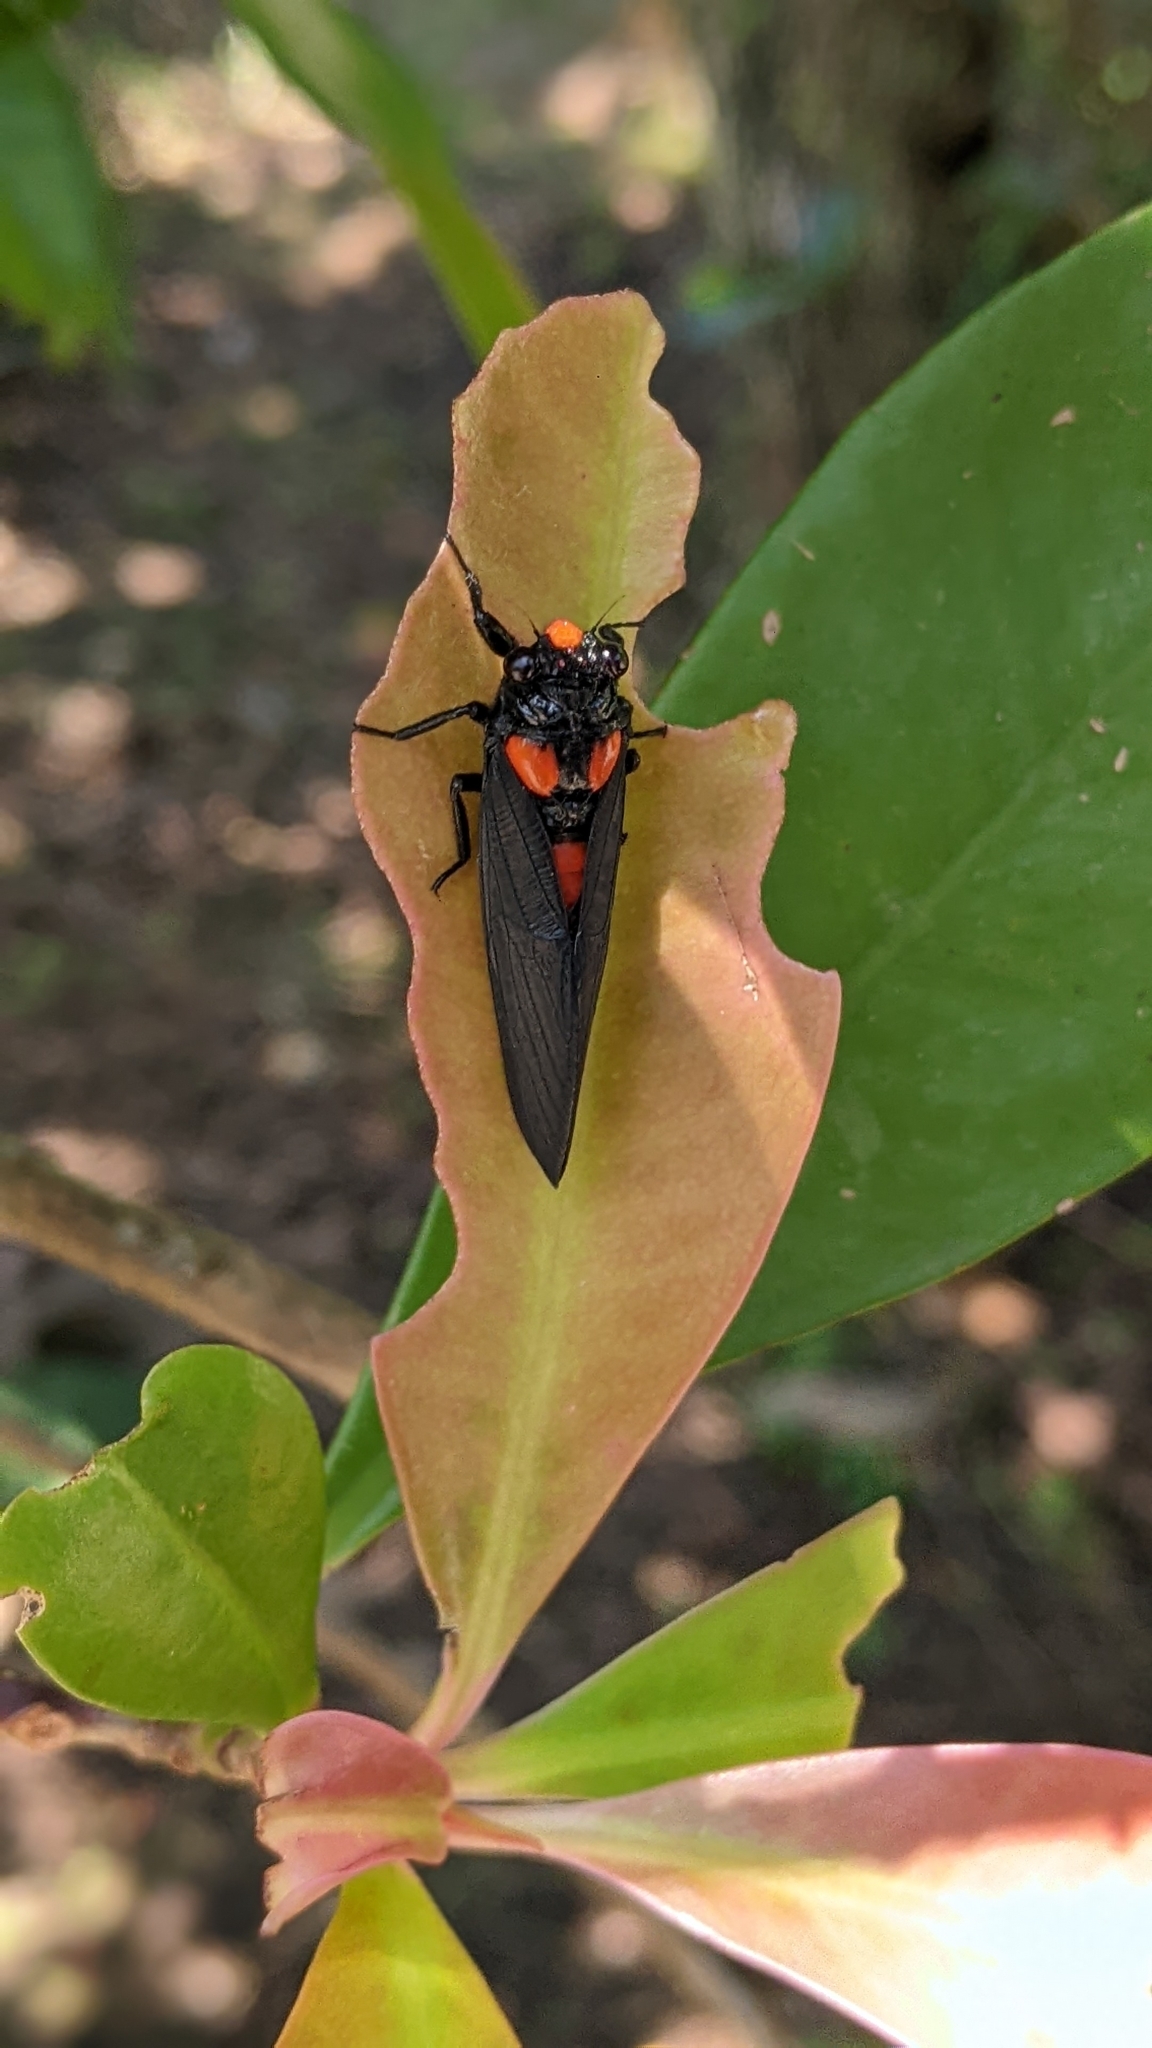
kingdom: Animalia
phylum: Arthropoda
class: Insecta
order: Hemiptera
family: Cicadidae
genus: Huechys
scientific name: Huechys sanguinea
